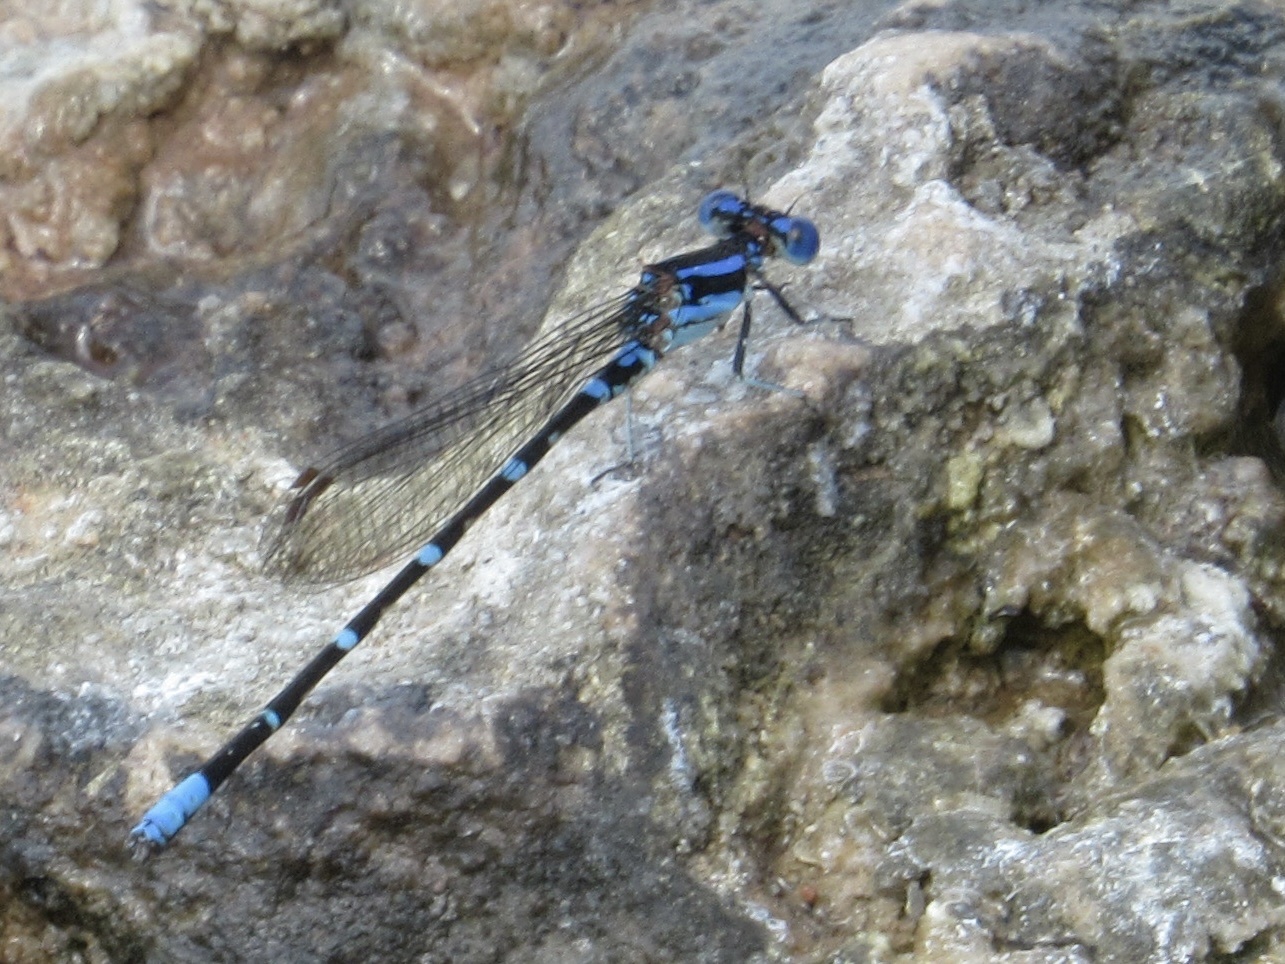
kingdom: Animalia
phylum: Arthropoda
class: Insecta
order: Odonata
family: Coenagrionidae
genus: Argia
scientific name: Argia sedula
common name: Blue-ringed dancer
